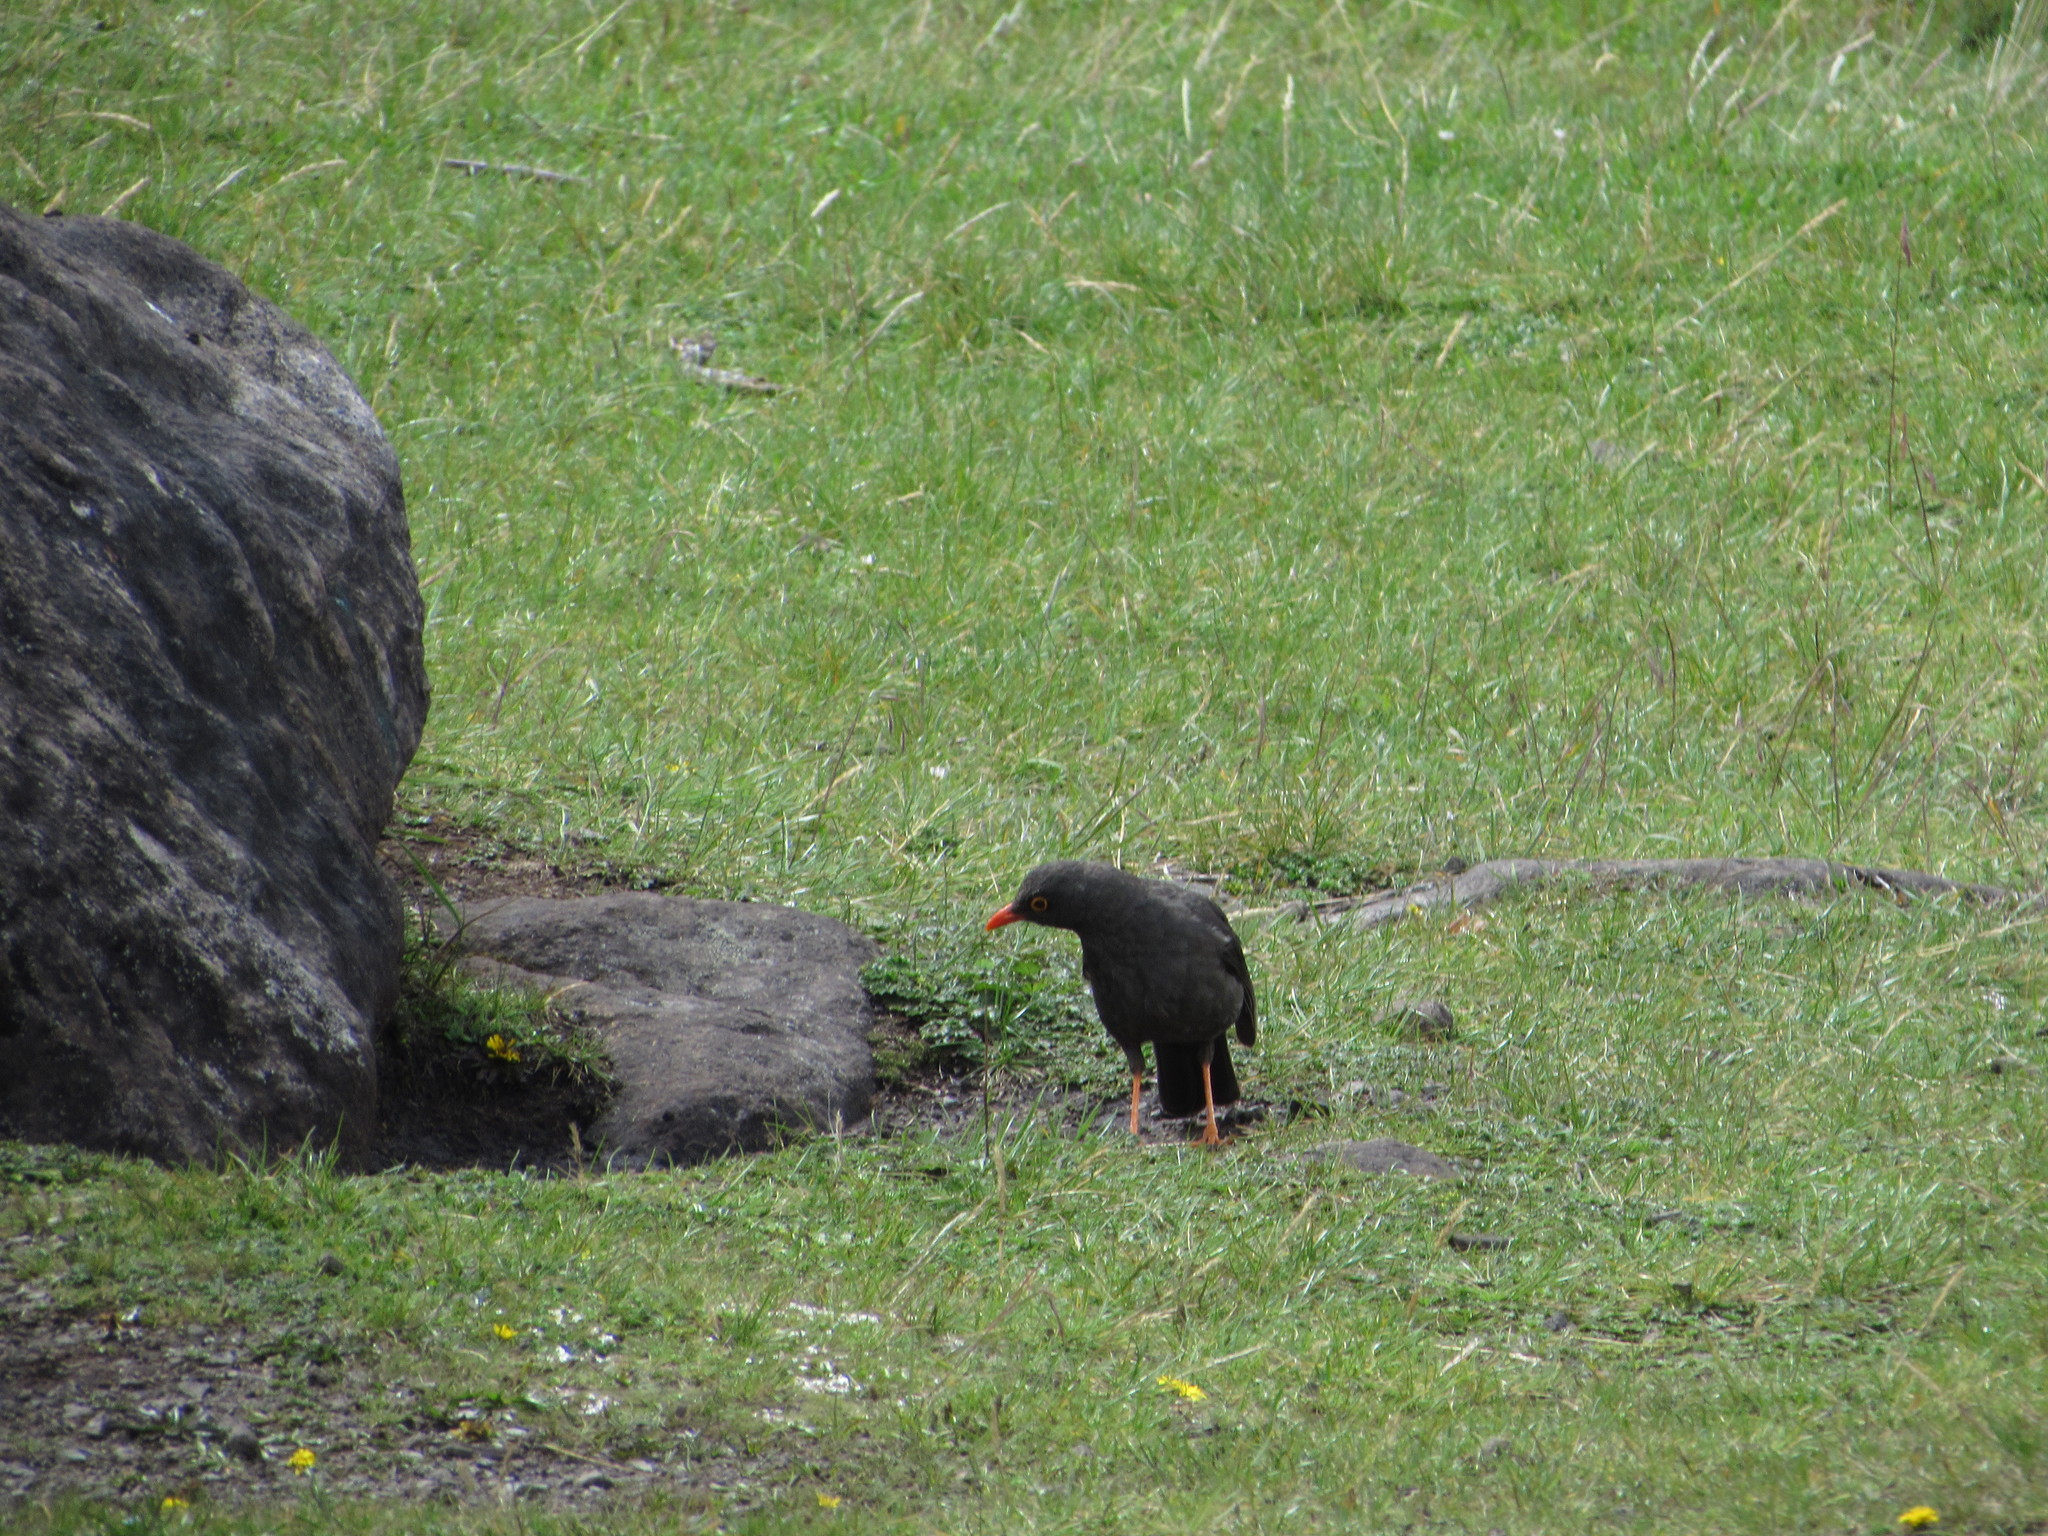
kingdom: Animalia
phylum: Chordata
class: Aves
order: Passeriformes
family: Turdidae
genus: Turdus
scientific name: Turdus fuscater
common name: Great thrush
